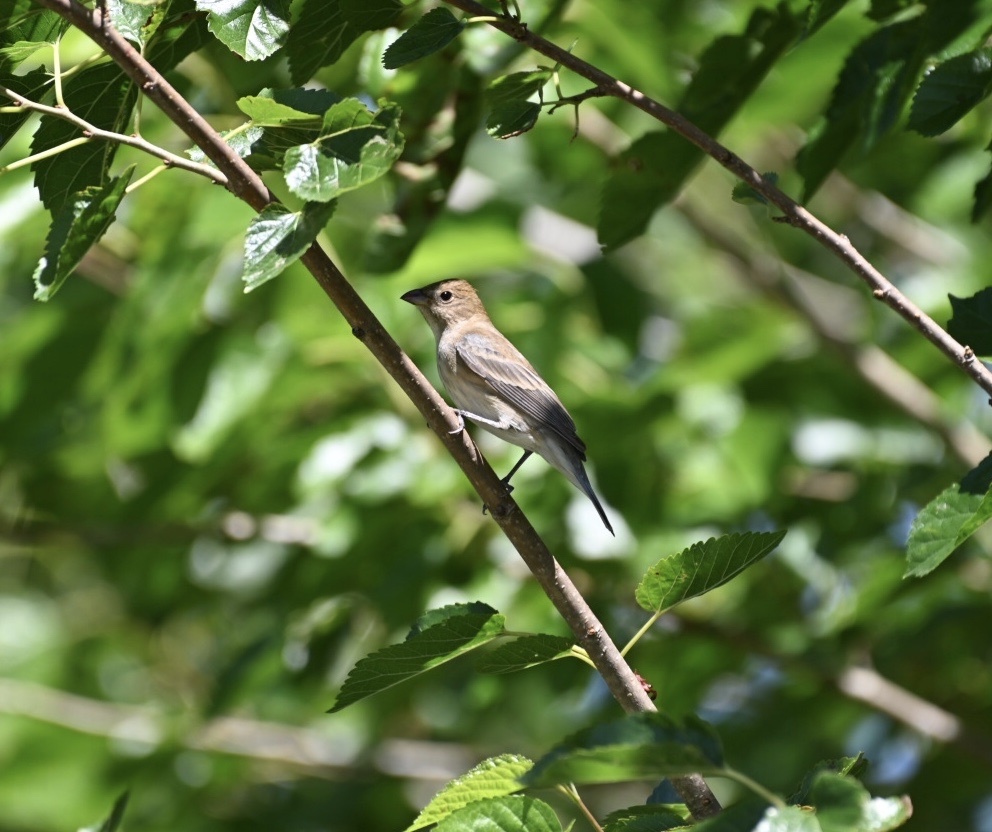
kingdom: Animalia
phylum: Chordata
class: Aves
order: Passeriformes
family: Cardinalidae
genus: Passerina
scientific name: Passerina cyanea
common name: Indigo bunting
